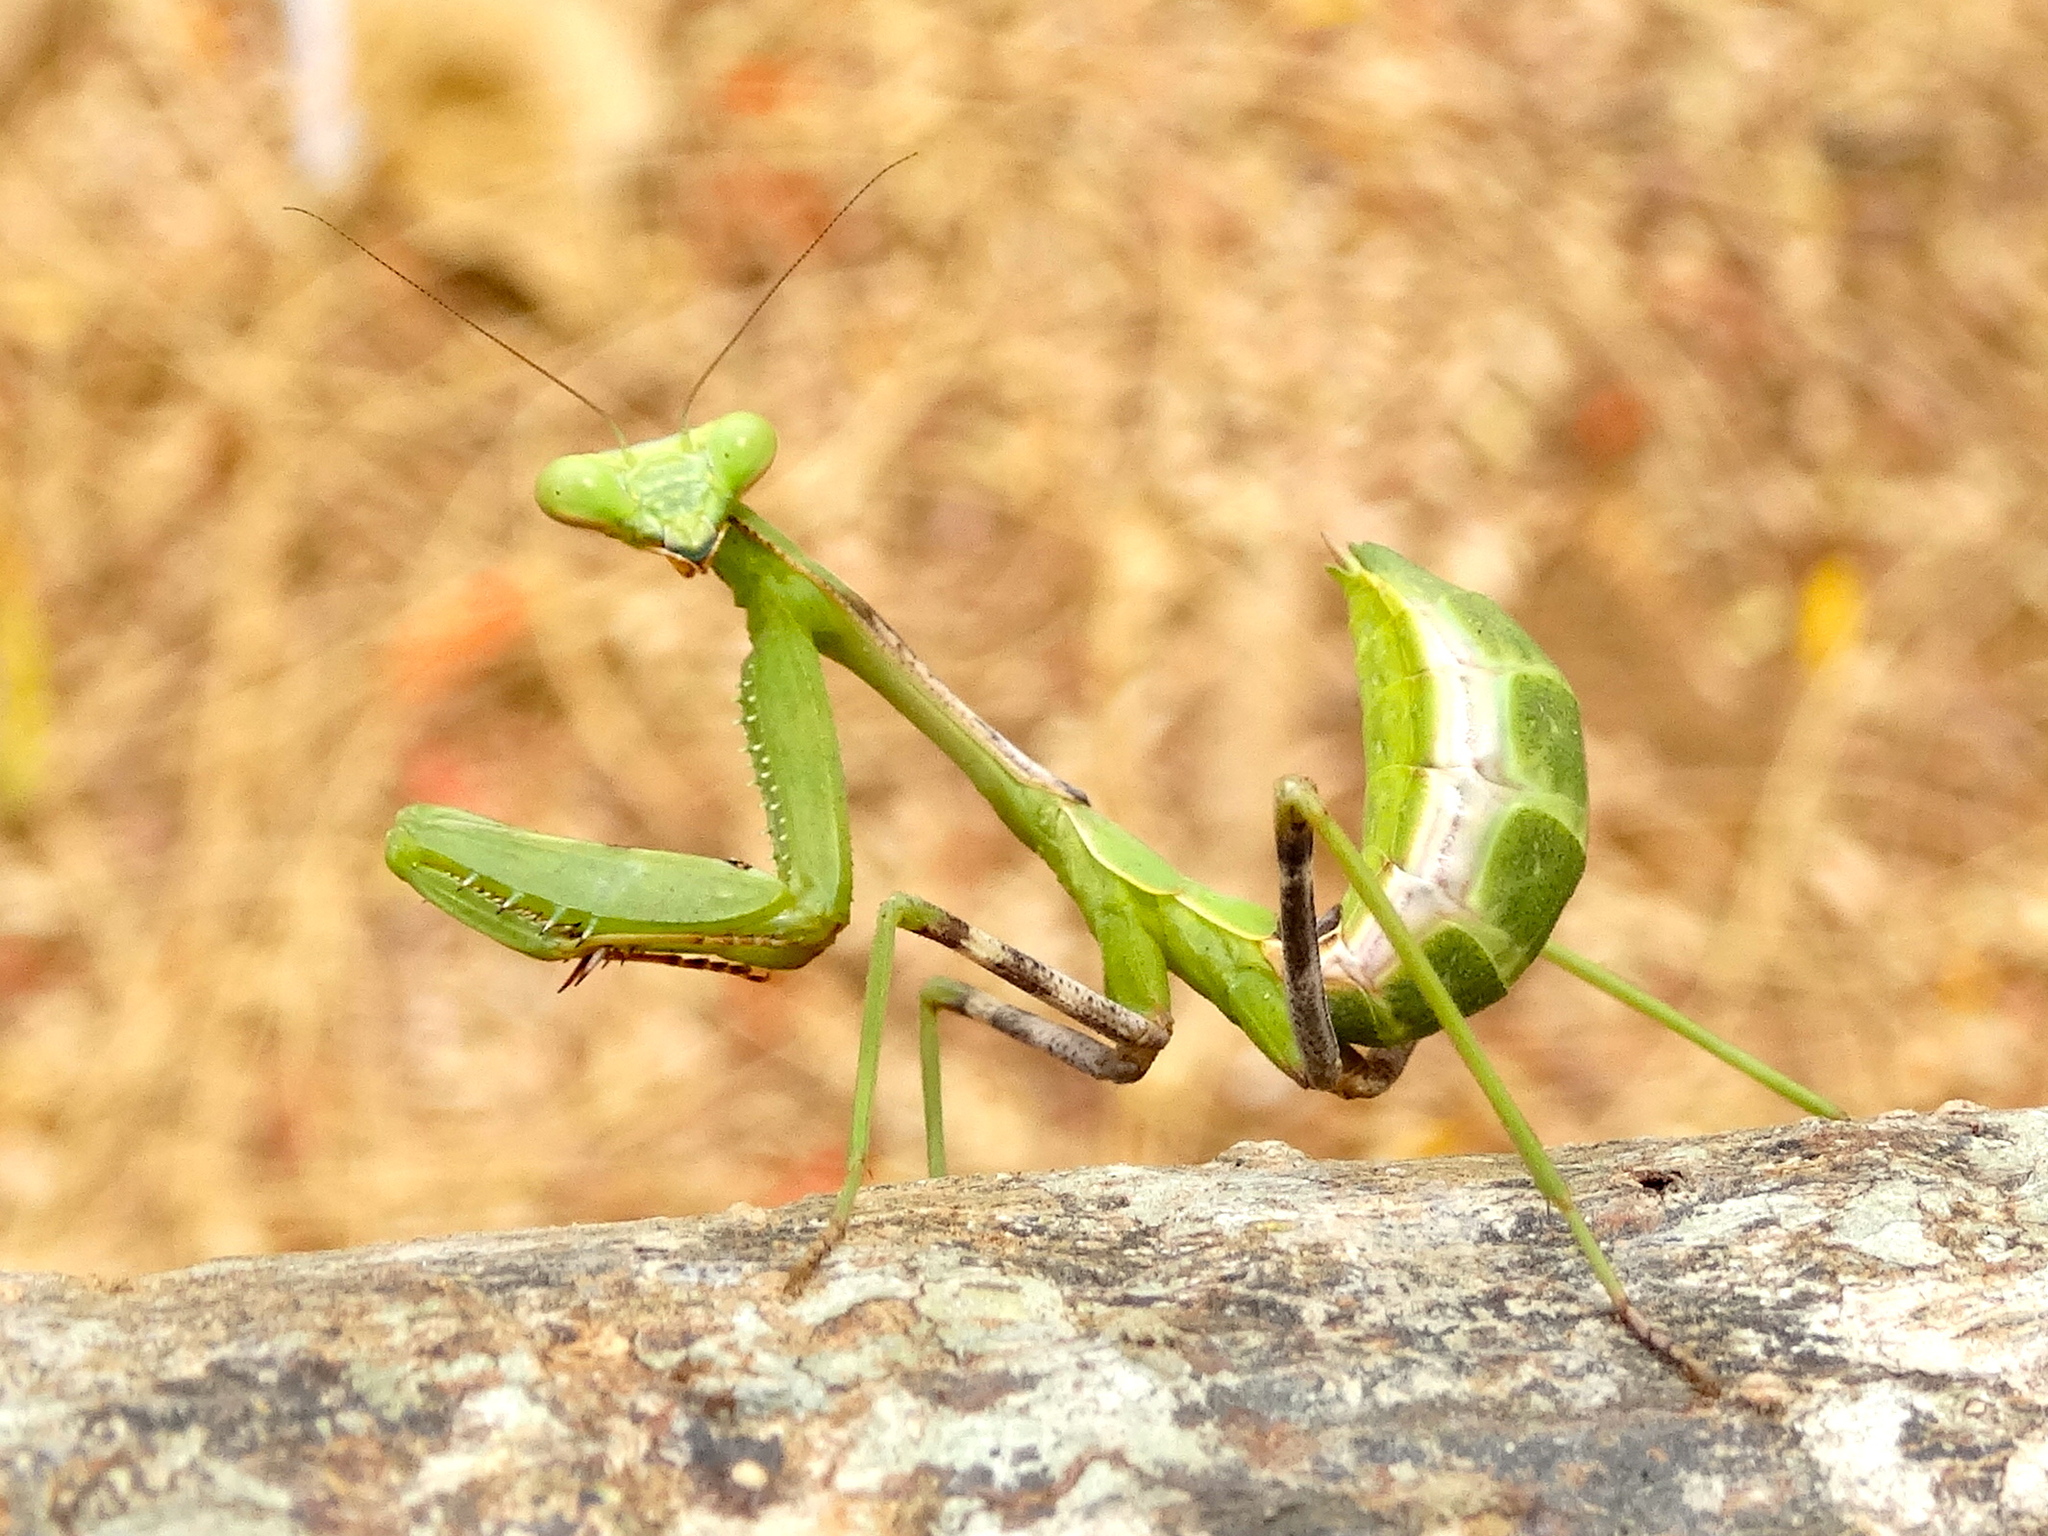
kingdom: Animalia
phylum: Arthropoda
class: Insecta
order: Mantodea
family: Mantidae
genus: Stagmomantis
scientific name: Stagmomantis limbata
